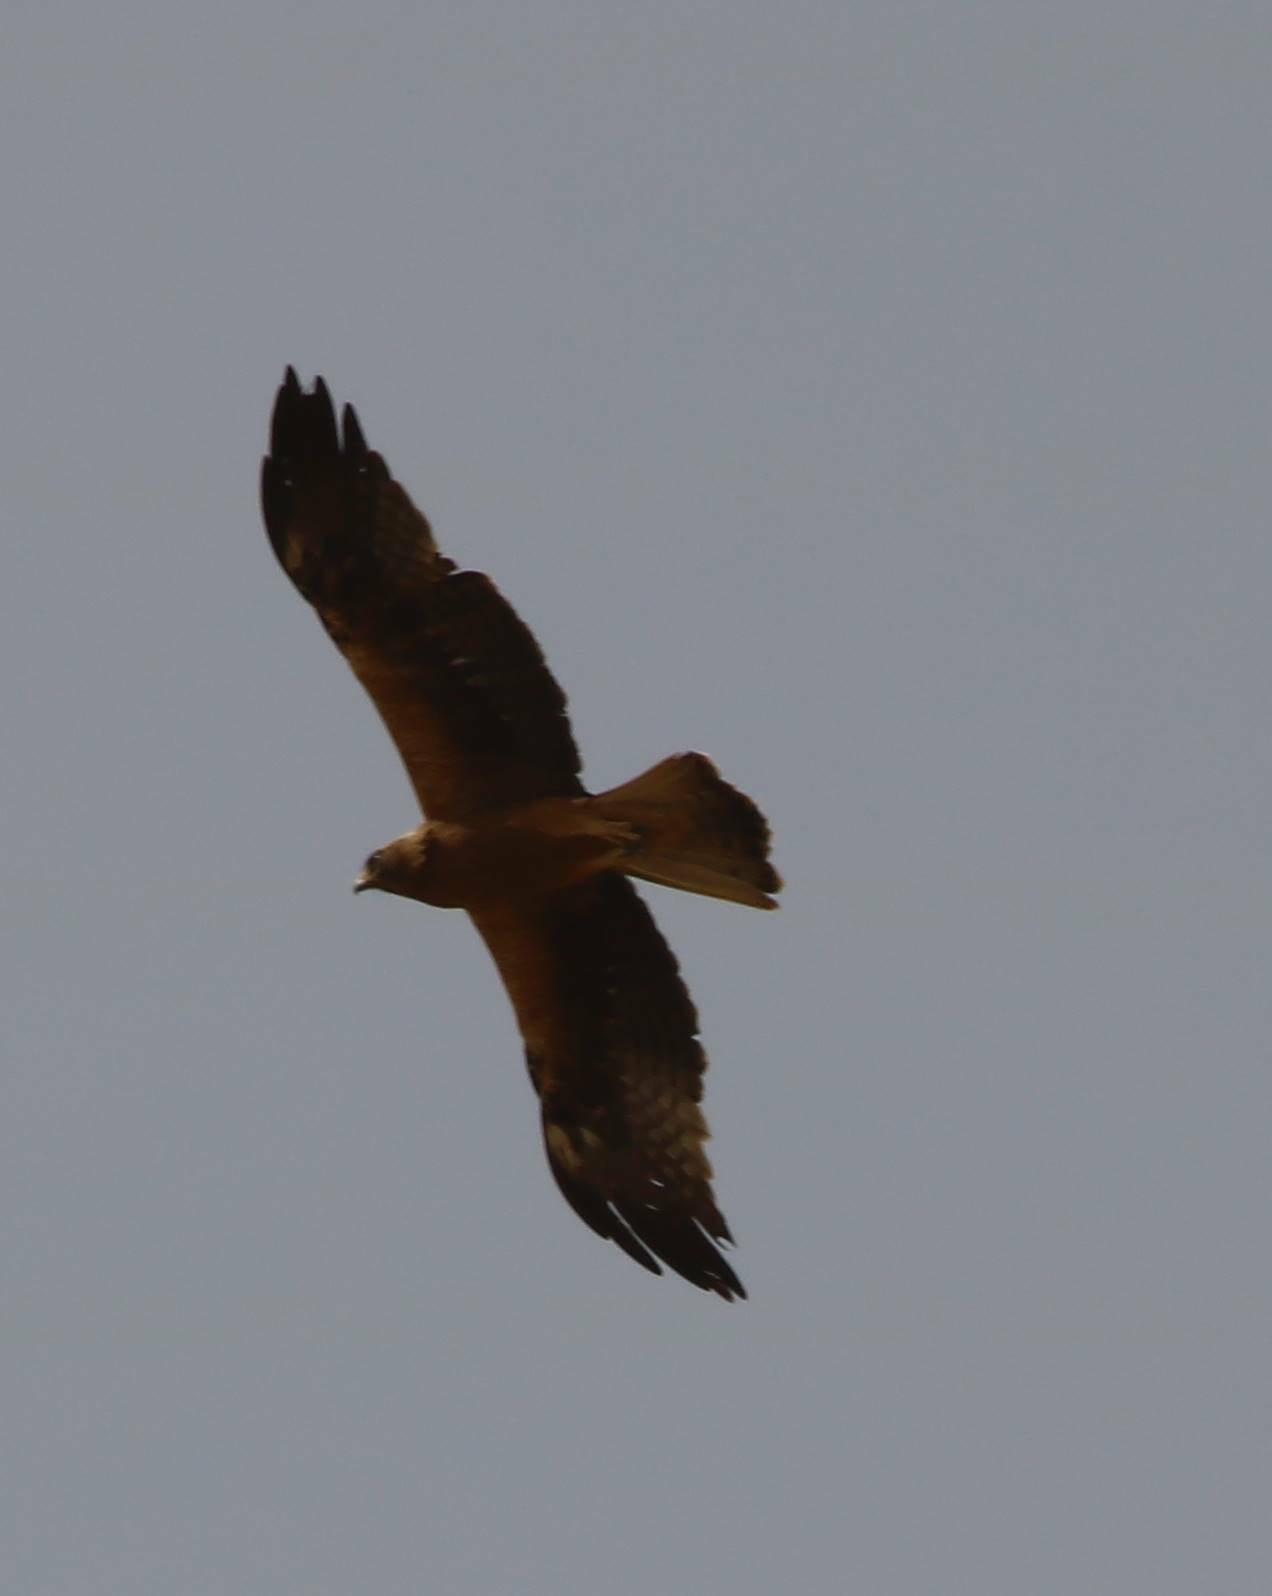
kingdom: Animalia
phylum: Chordata
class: Aves
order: Accipitriformes
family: Accipitridae
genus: Hieraaetus
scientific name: Hieraaetus pennatus
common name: Booted eagle
